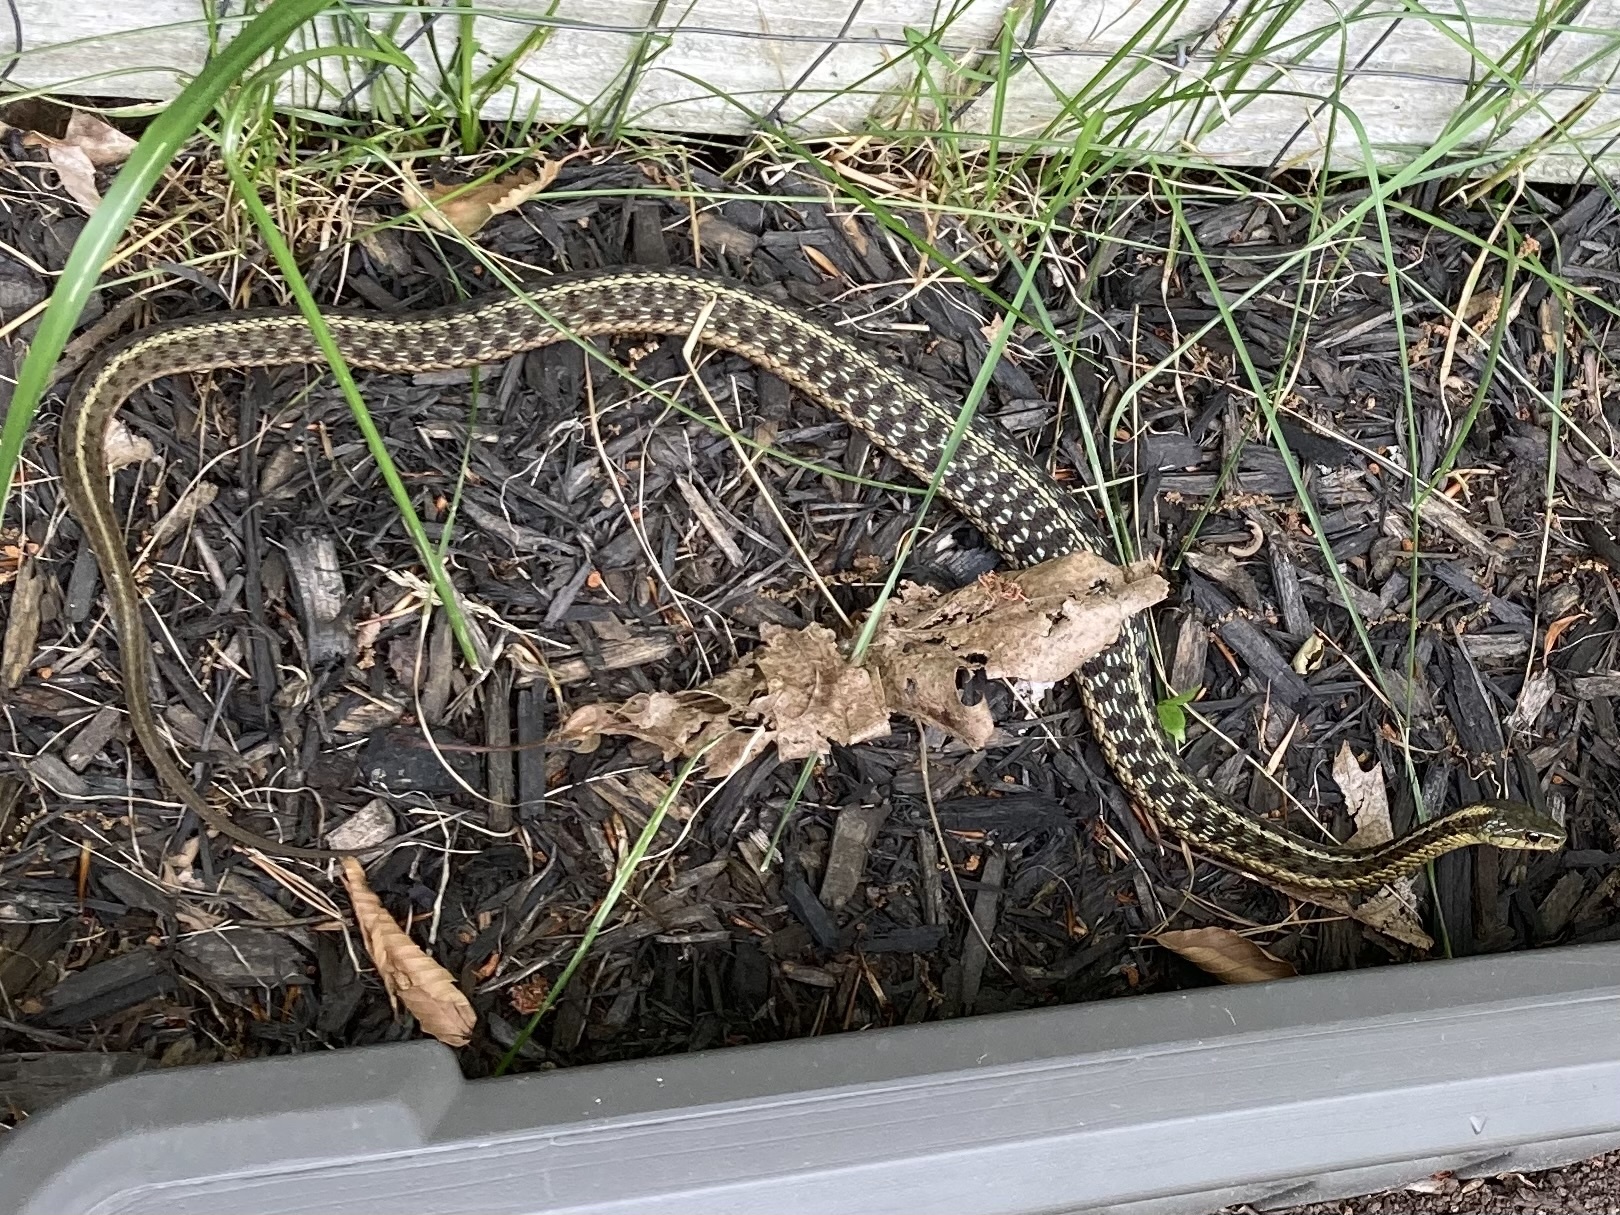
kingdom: Animalia
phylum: Chordata
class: Squamata
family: Colubridae
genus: Thamnophis
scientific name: Thamnophis sirtalis
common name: Common garter snake
